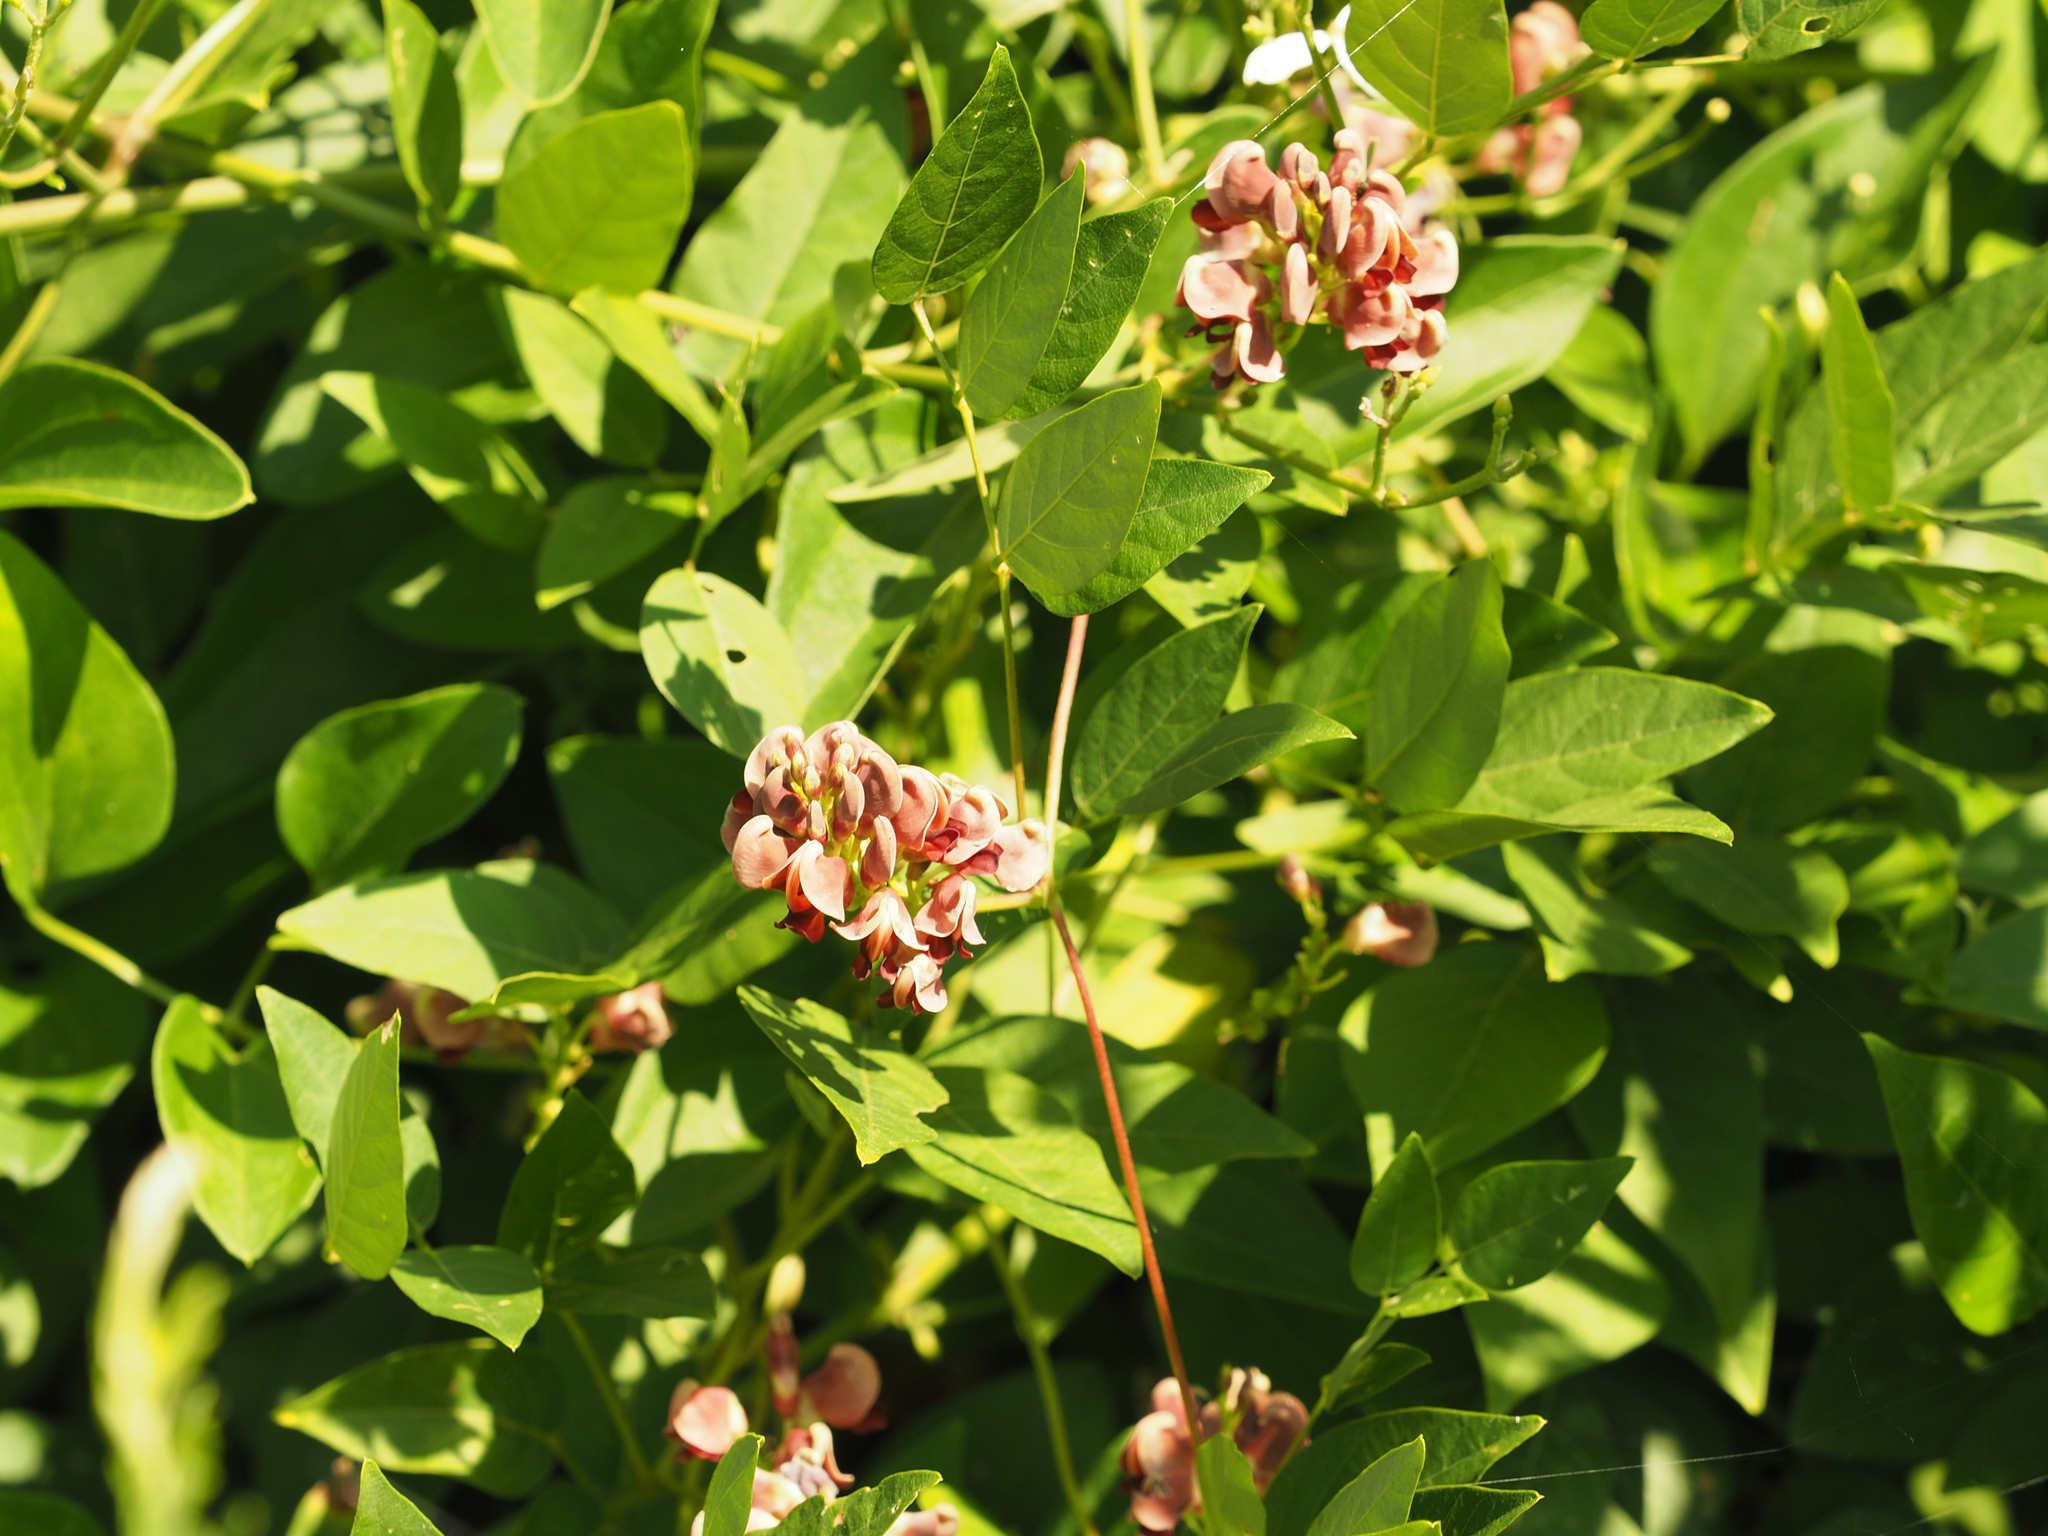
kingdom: Plantae
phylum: Tracheophyta
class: Magnoliopsida
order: Fabales
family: Fabaceae
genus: Apios
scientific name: Apios americana
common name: American potato-bean
